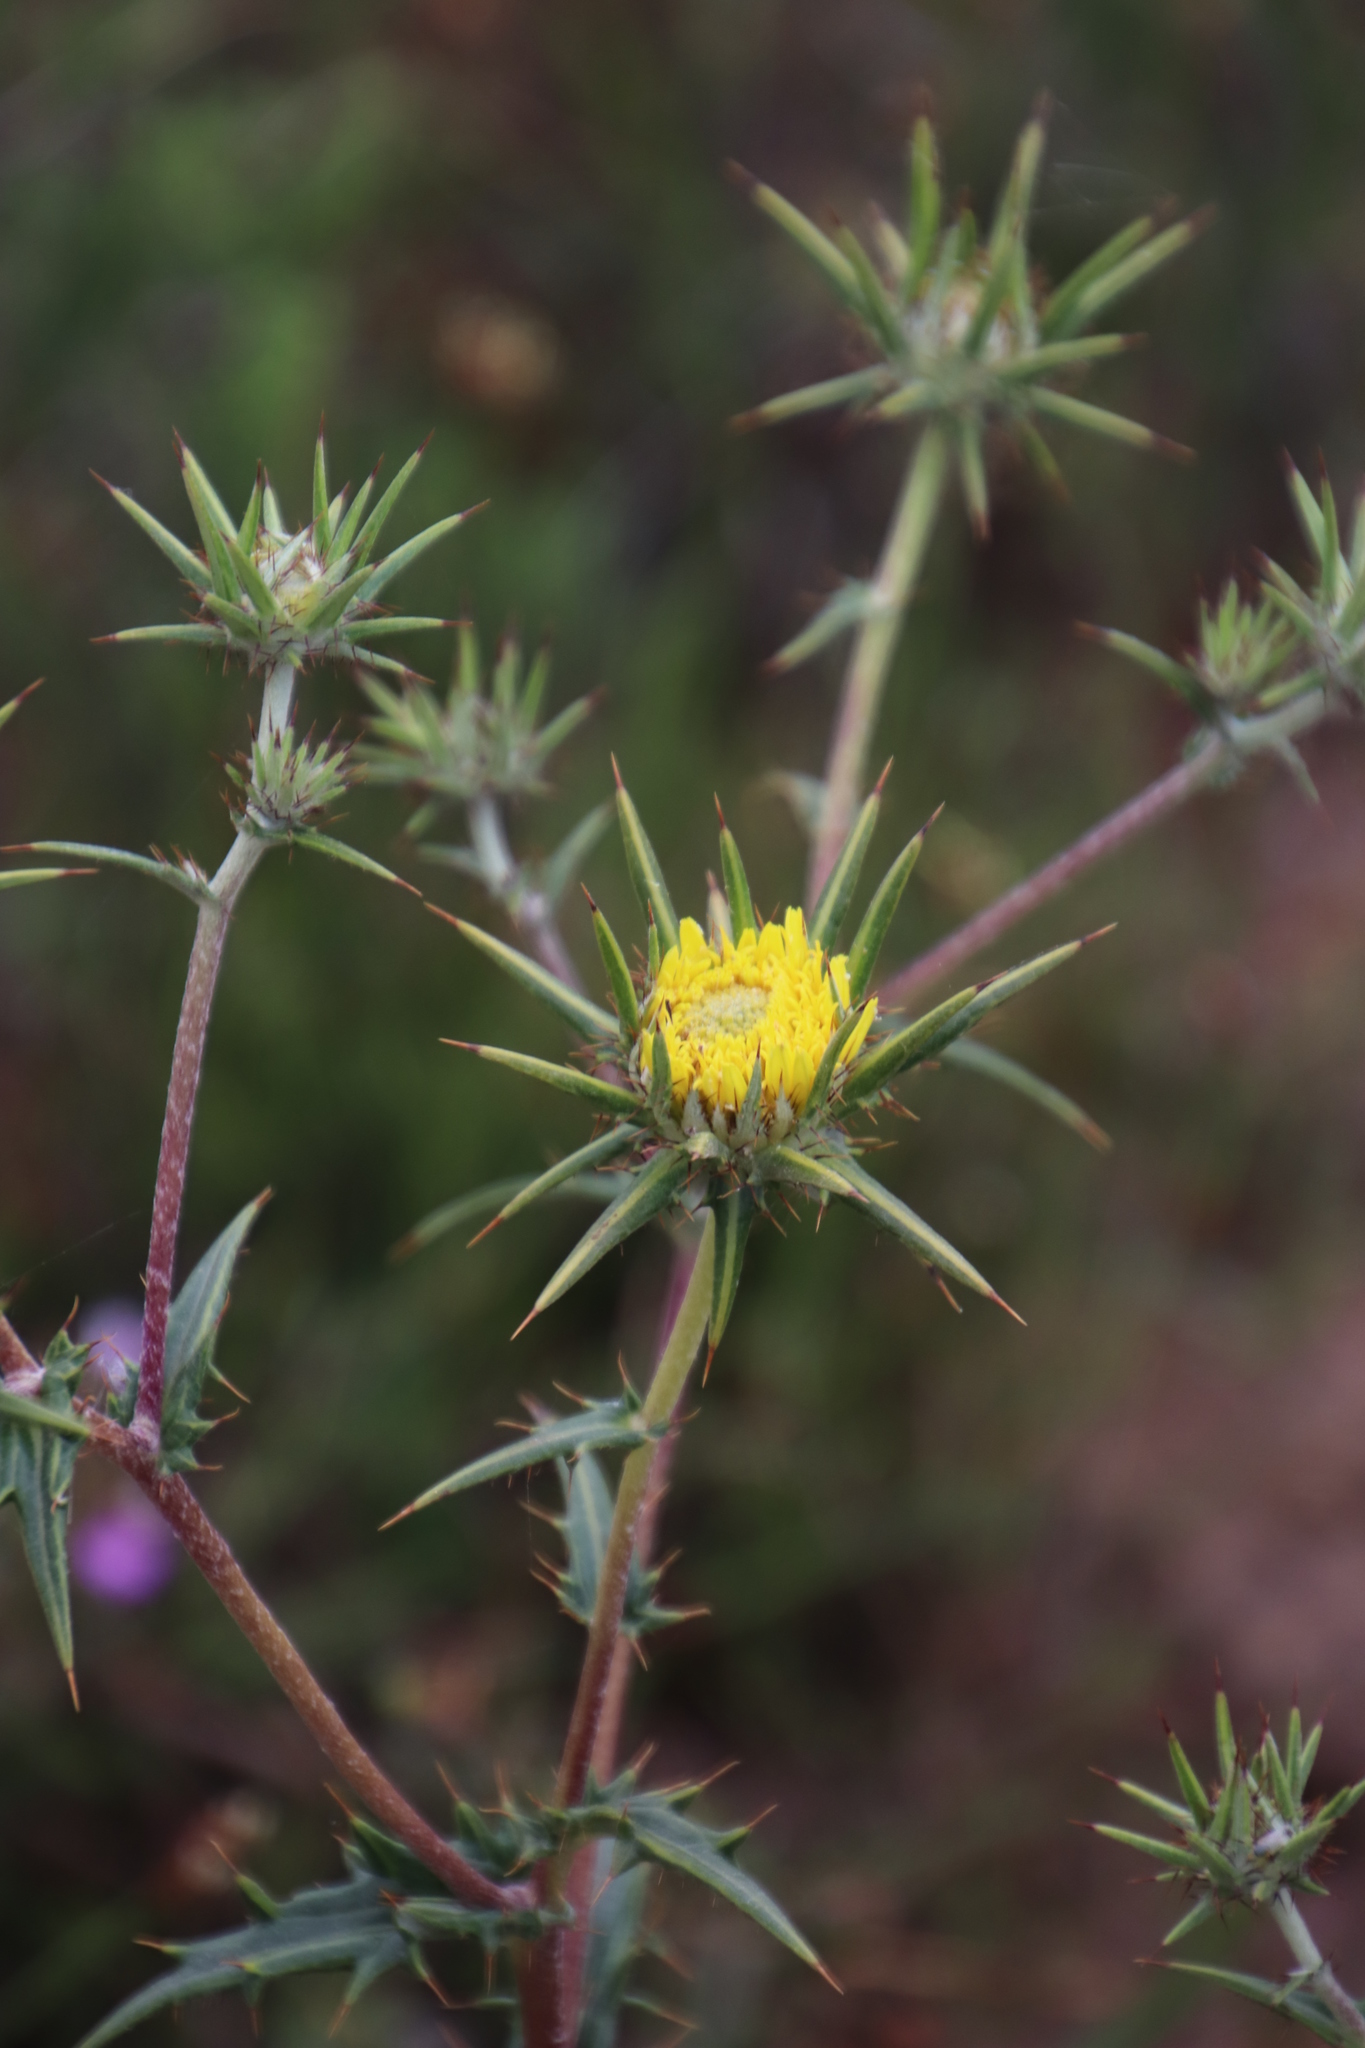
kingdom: Plantae
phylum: Tracheophyta
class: Magnoliopsida
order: Asterales
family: Asteraceae
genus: Berkheya
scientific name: Berkheya heterophylla
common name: Prickly gousblom
